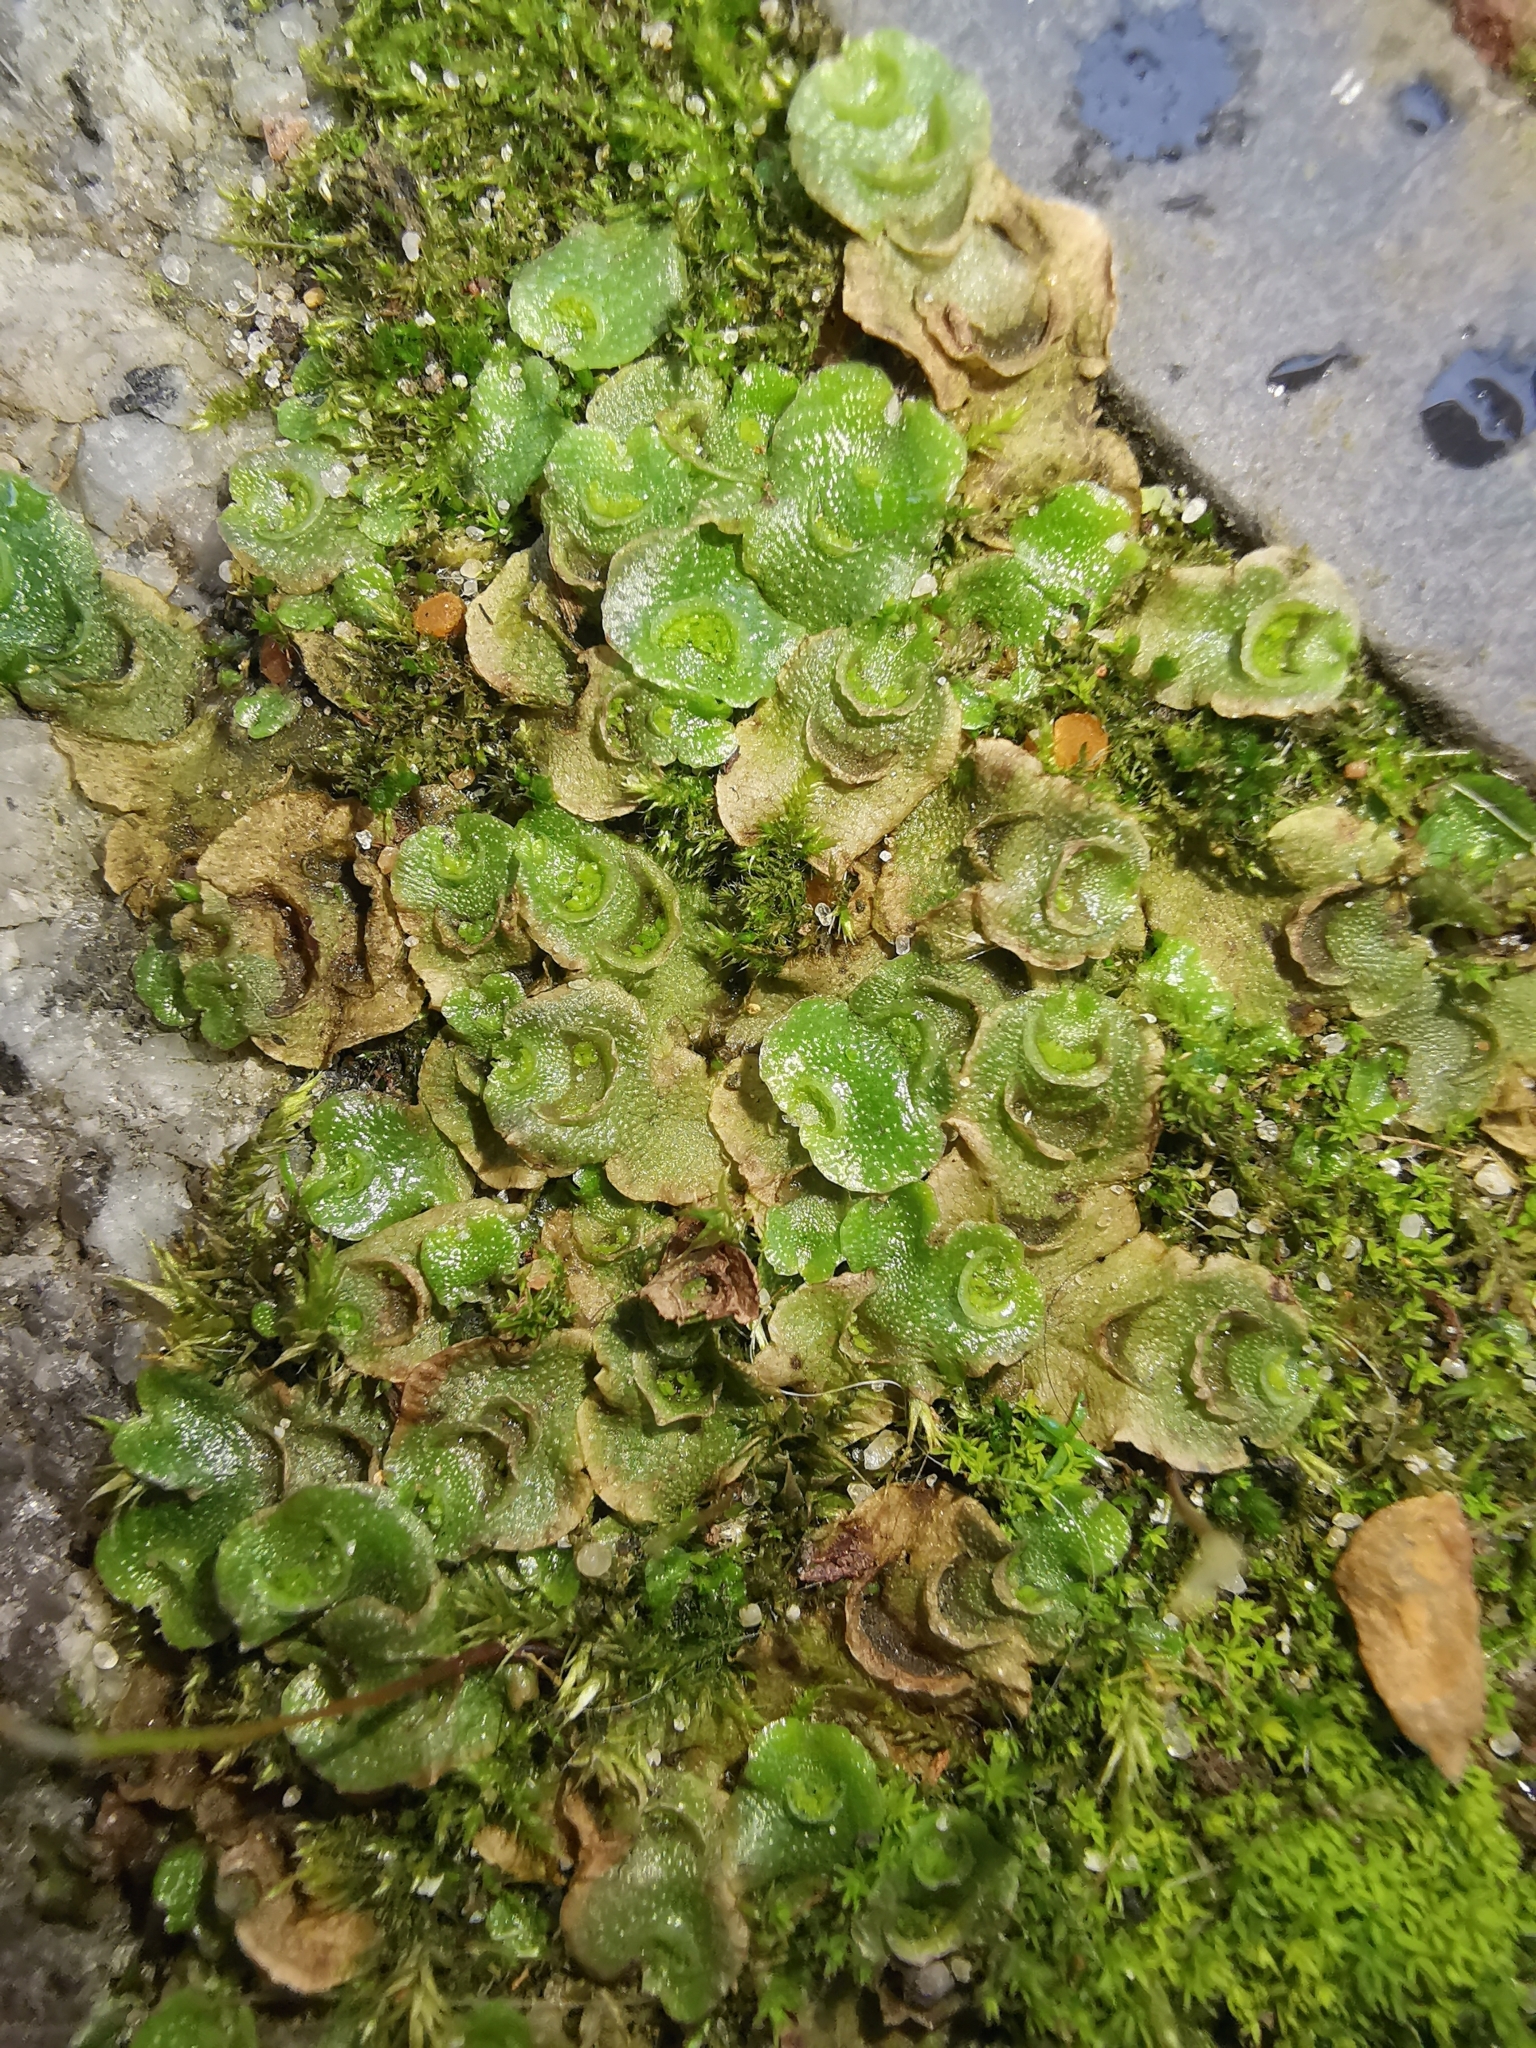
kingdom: Plantae
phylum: Marchantiophyta
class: Marchantiopsida
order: Lunulariales
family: Lunulariaceae
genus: Lunularia
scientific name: Lunularia cruciata
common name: Crescent-cup liverwort
